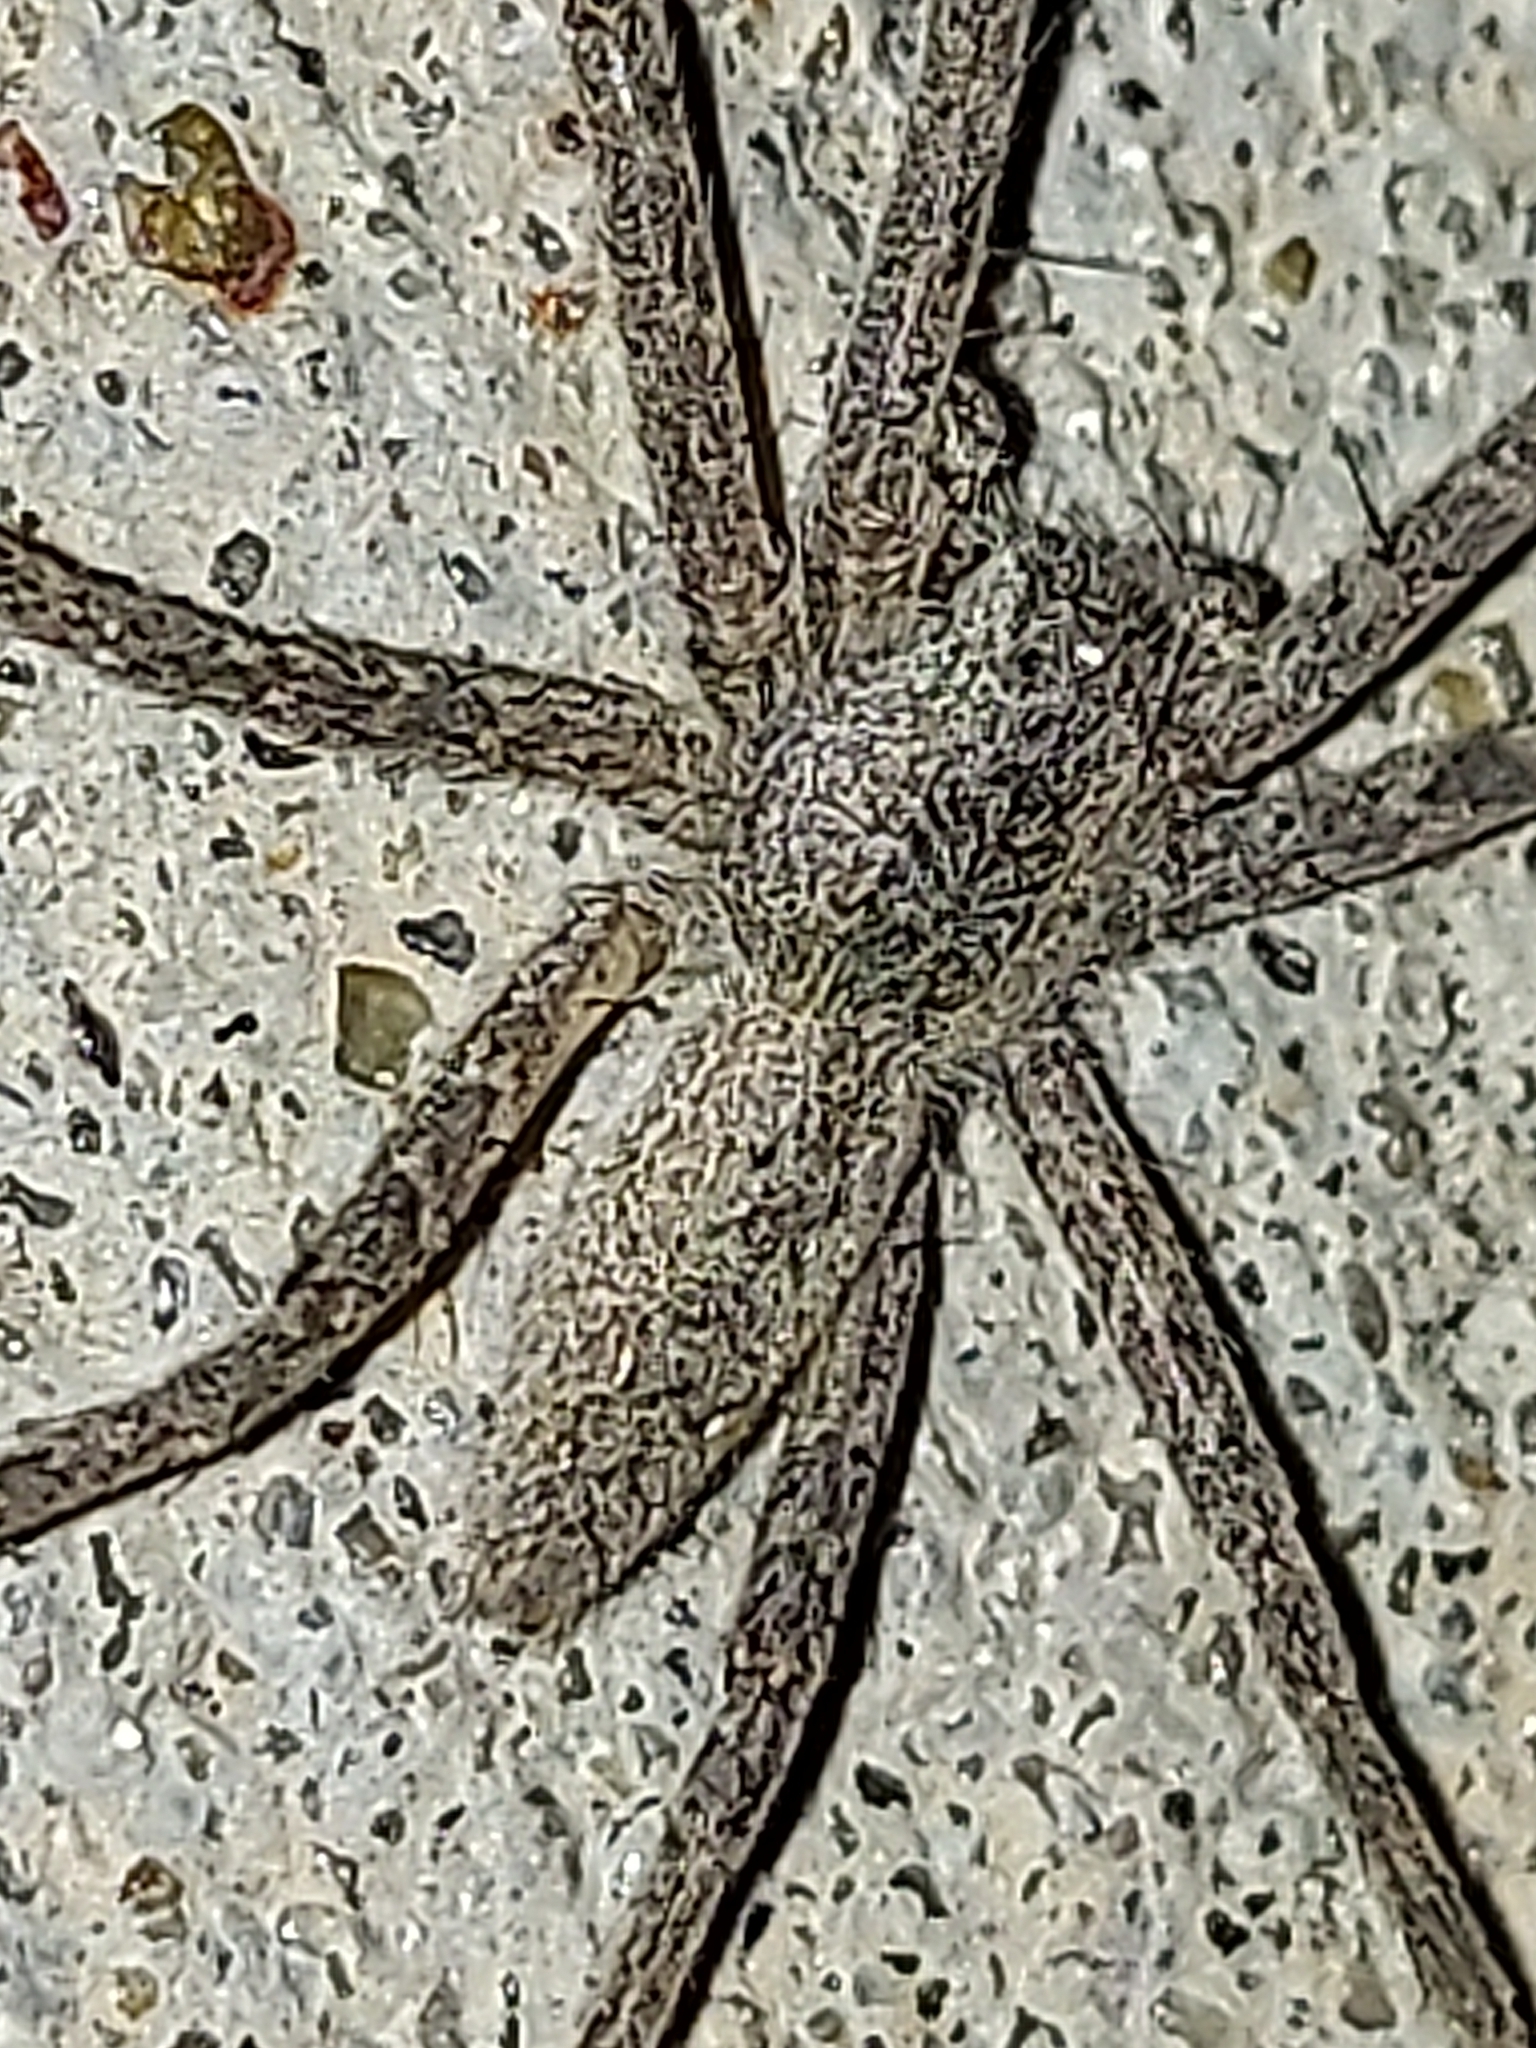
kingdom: Animalia
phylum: Arthropoda
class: Arachnida
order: Araneae
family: Pisauridae
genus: Pisaurina
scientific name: Pisaurina mira
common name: American nursery web spider
